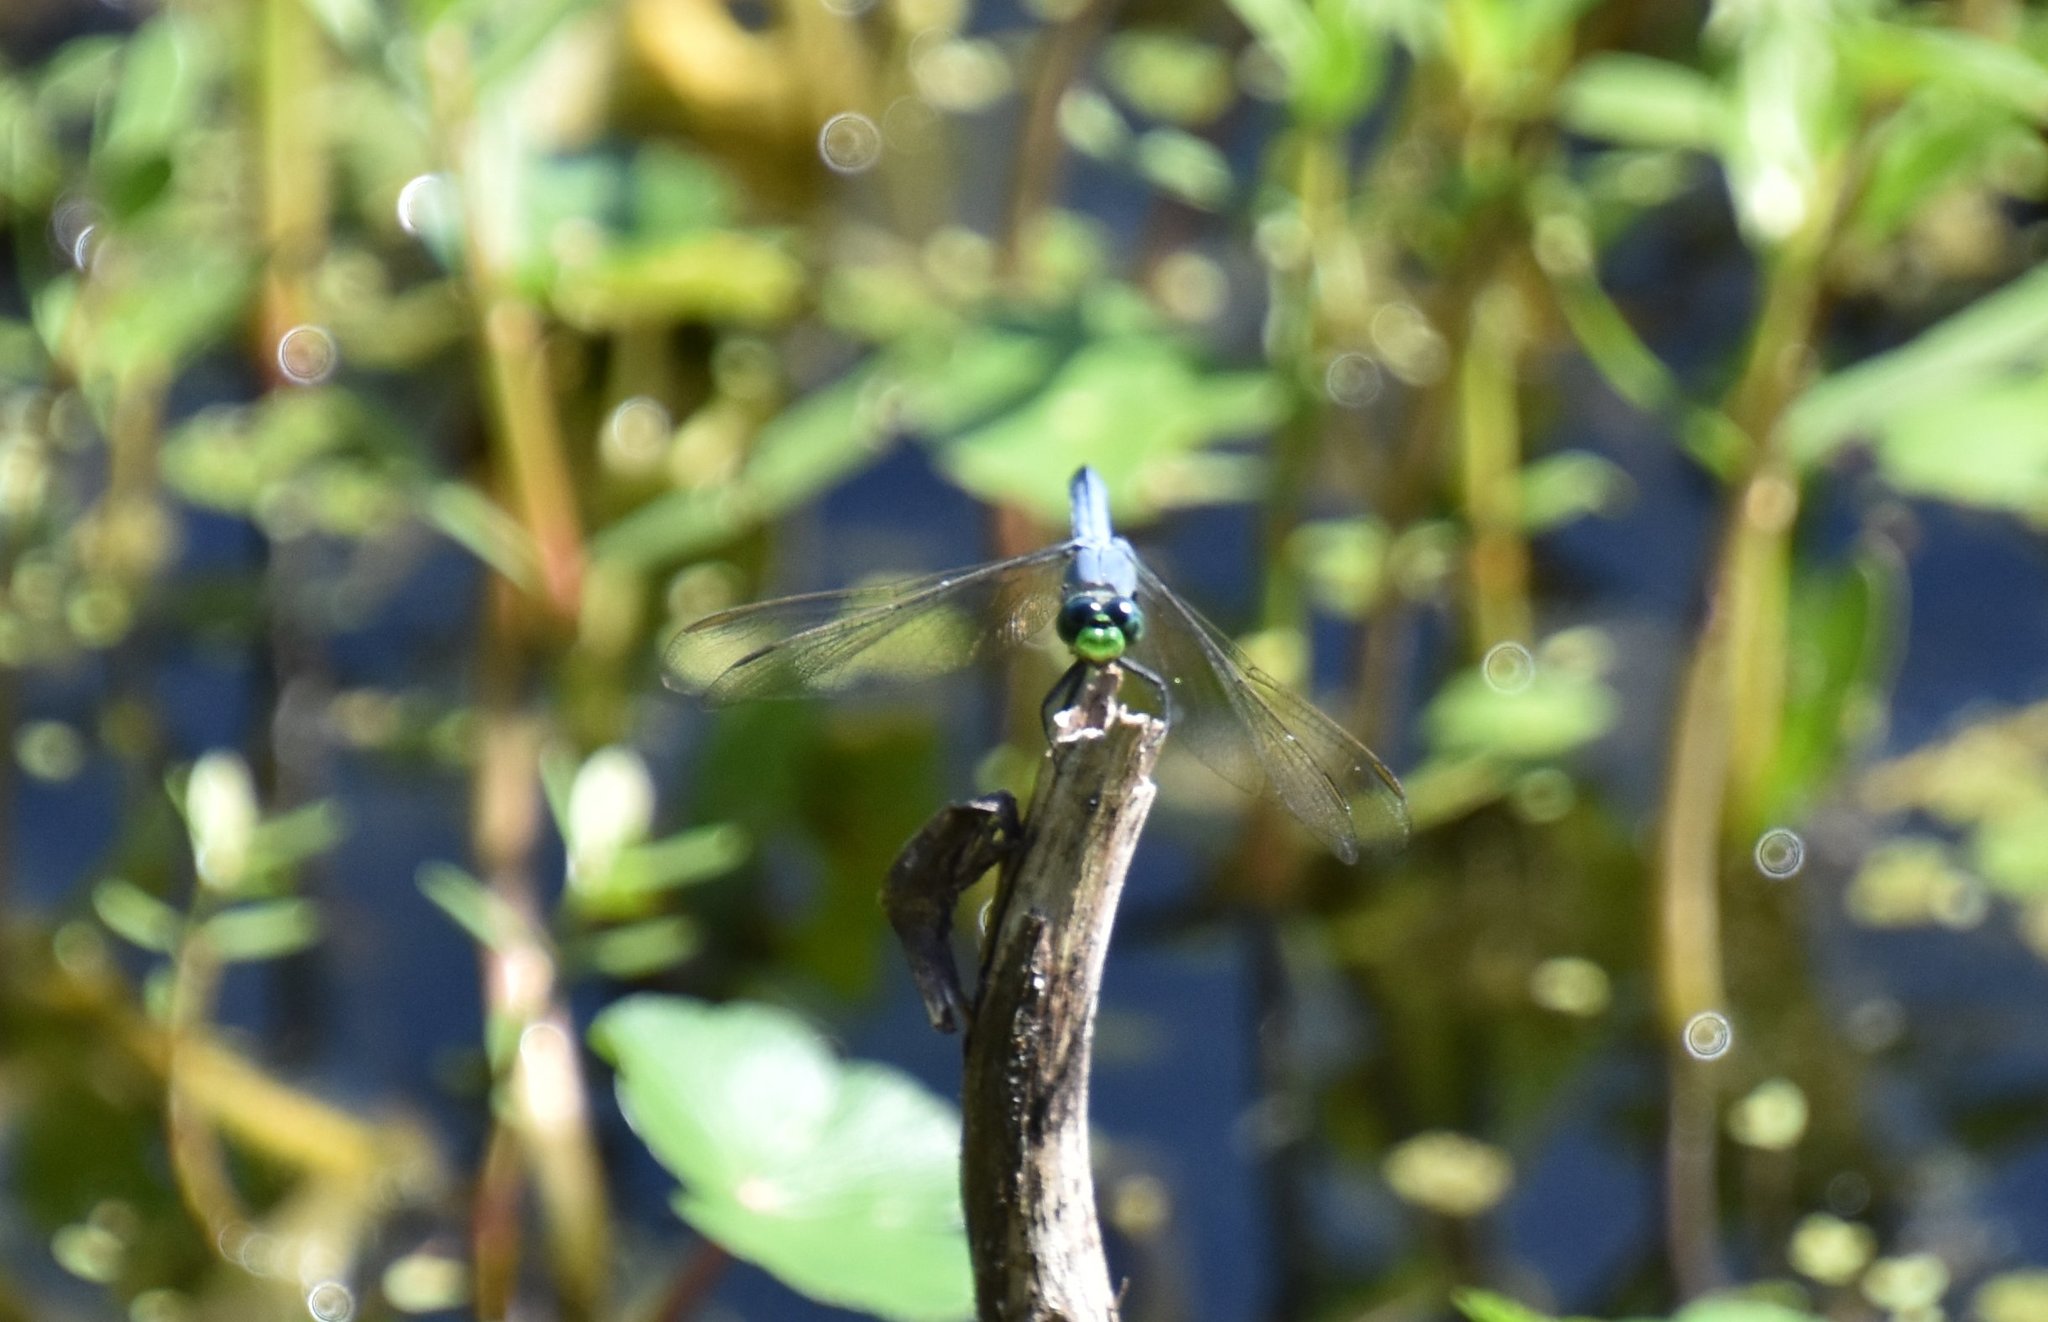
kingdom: Animalia
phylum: Arthropoda
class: Insecta
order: Odonata
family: Libellulidae
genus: Erythemis
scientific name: Erythemis simplicicollis
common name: Eastern pondhawk
